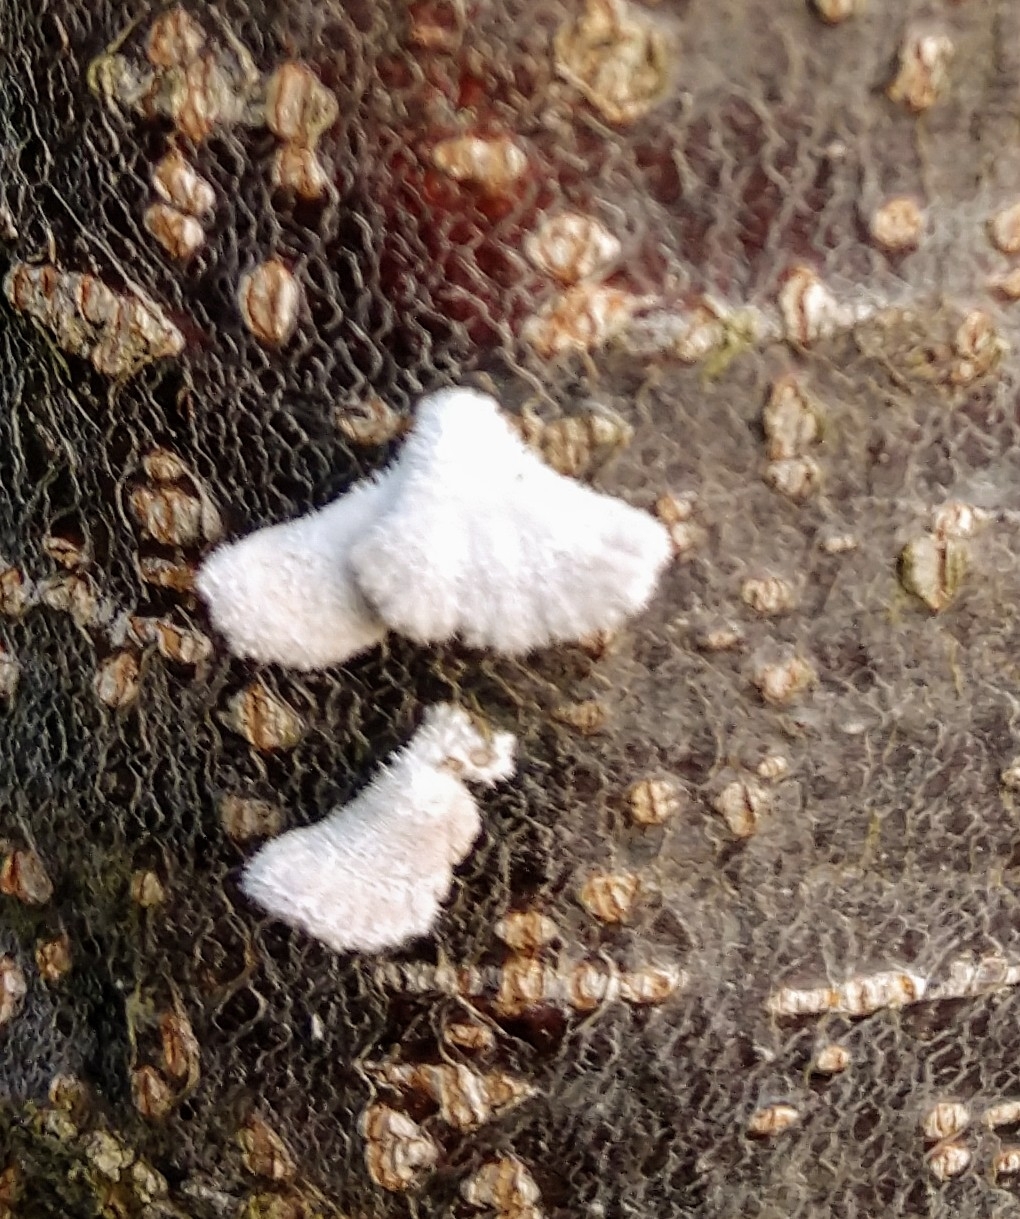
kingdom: Fungi
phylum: Basidiomycota
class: Agaricomycetes
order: Agaricales
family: Schizophyllaceae
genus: Schizophyllum
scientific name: Schizophyllum commune
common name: Common porecrust
